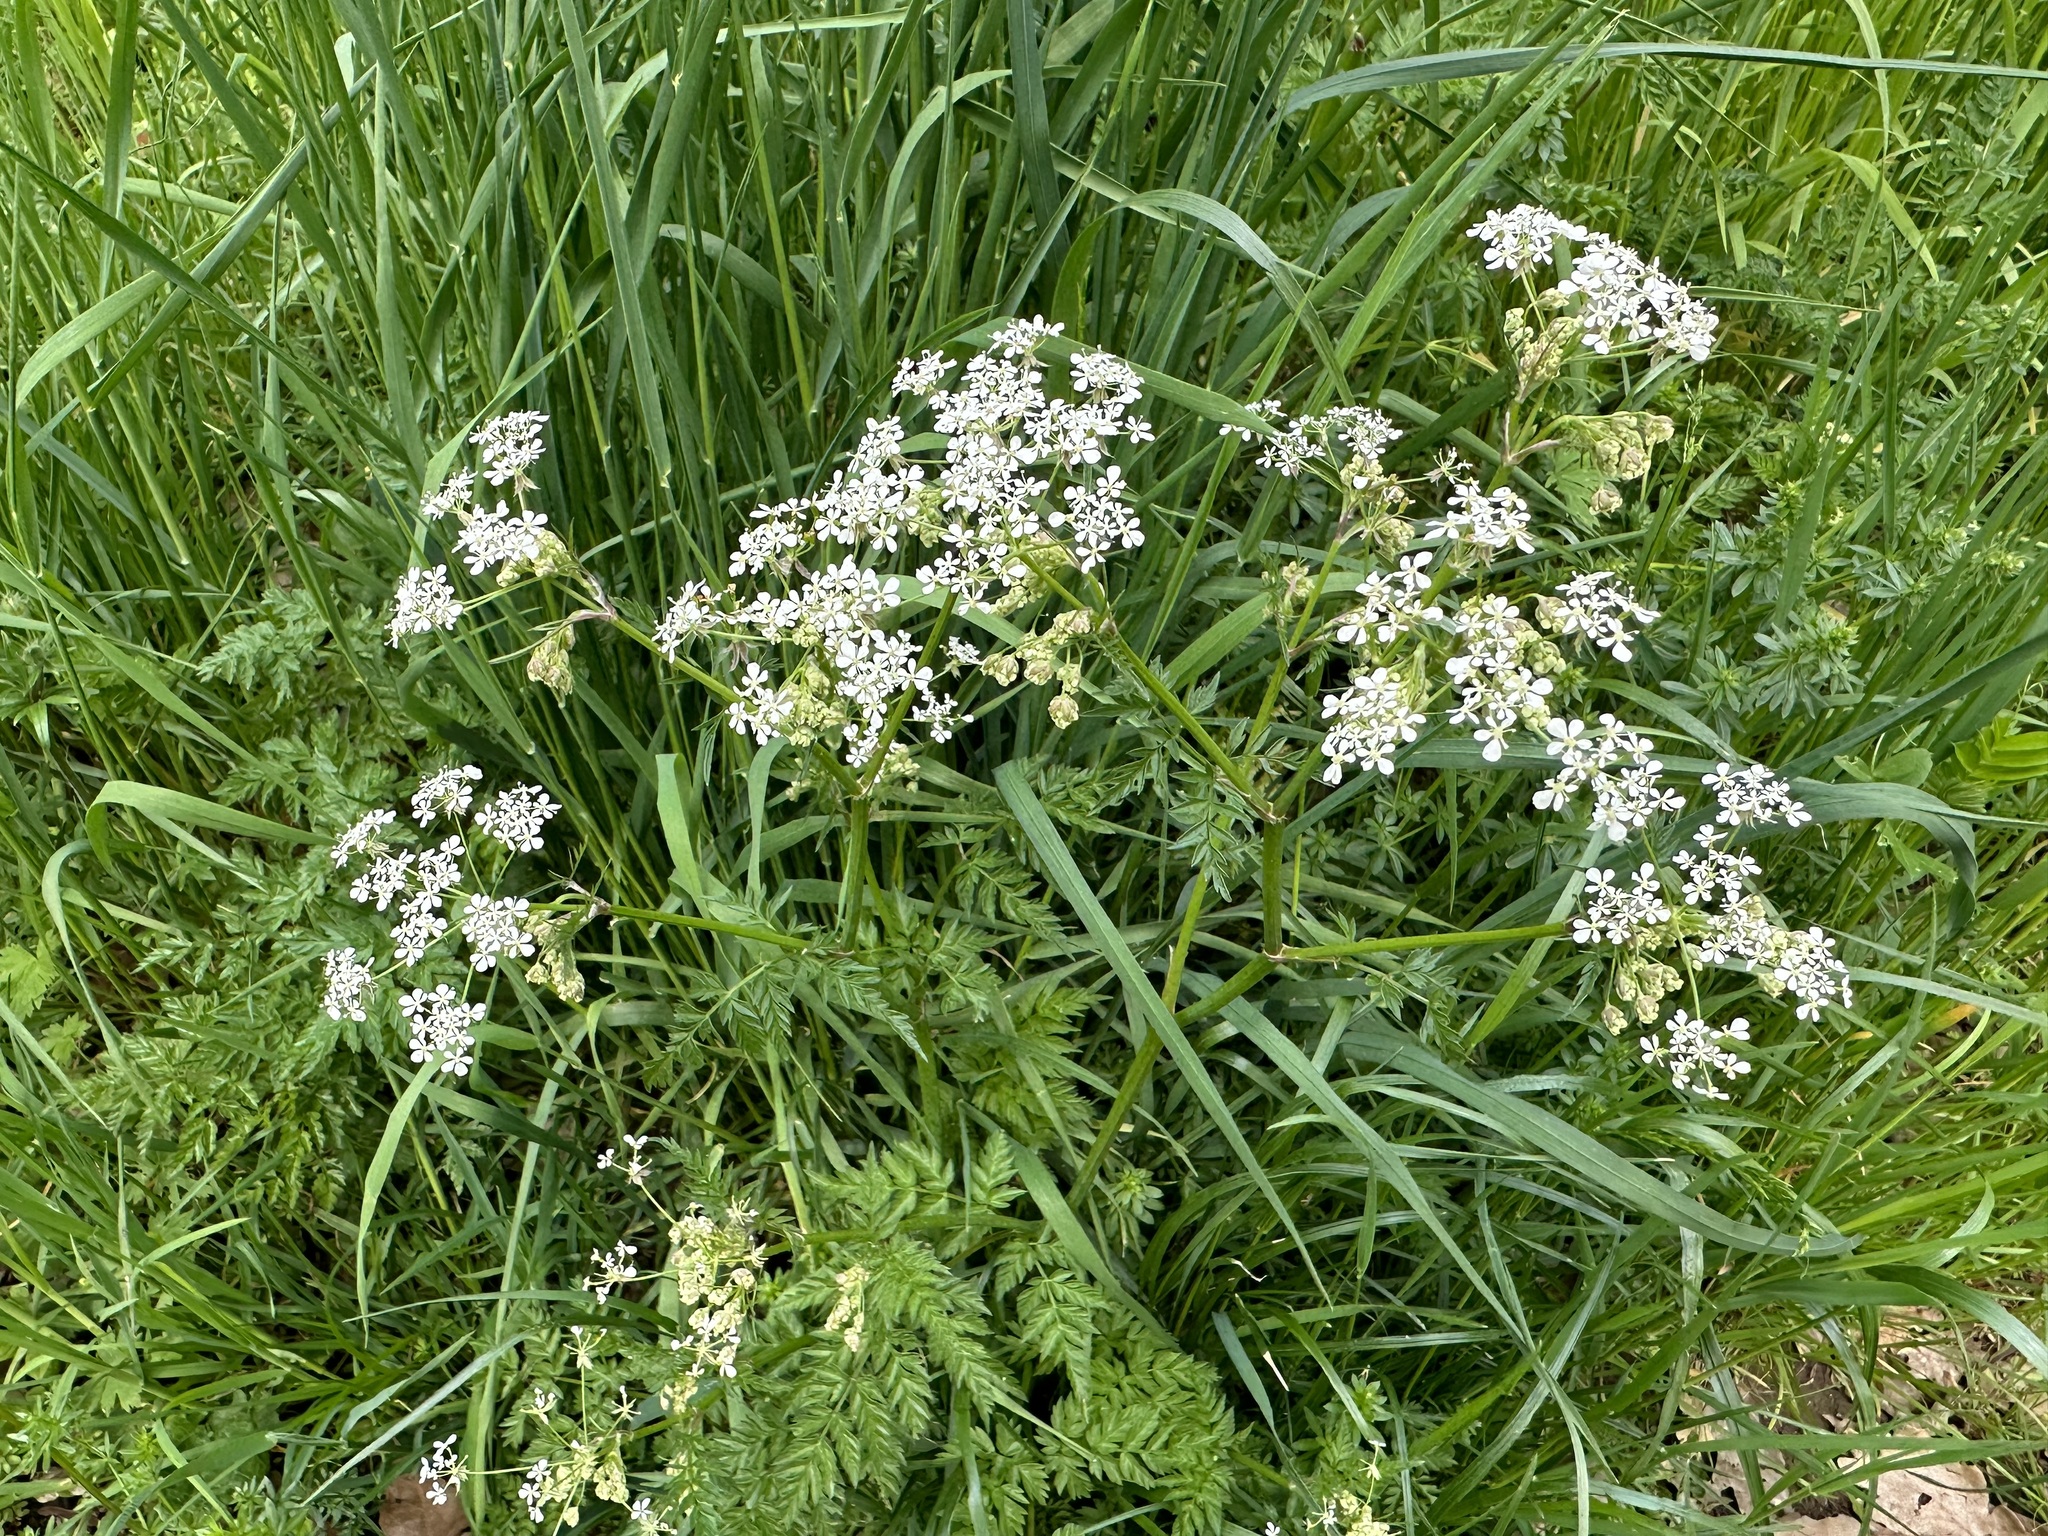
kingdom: Plantae
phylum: Tracheophyta
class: Magnoliopsida
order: Apiales
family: Apiaceae
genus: Anthriscus
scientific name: Anthriscus sylvestris
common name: Cow parsley
